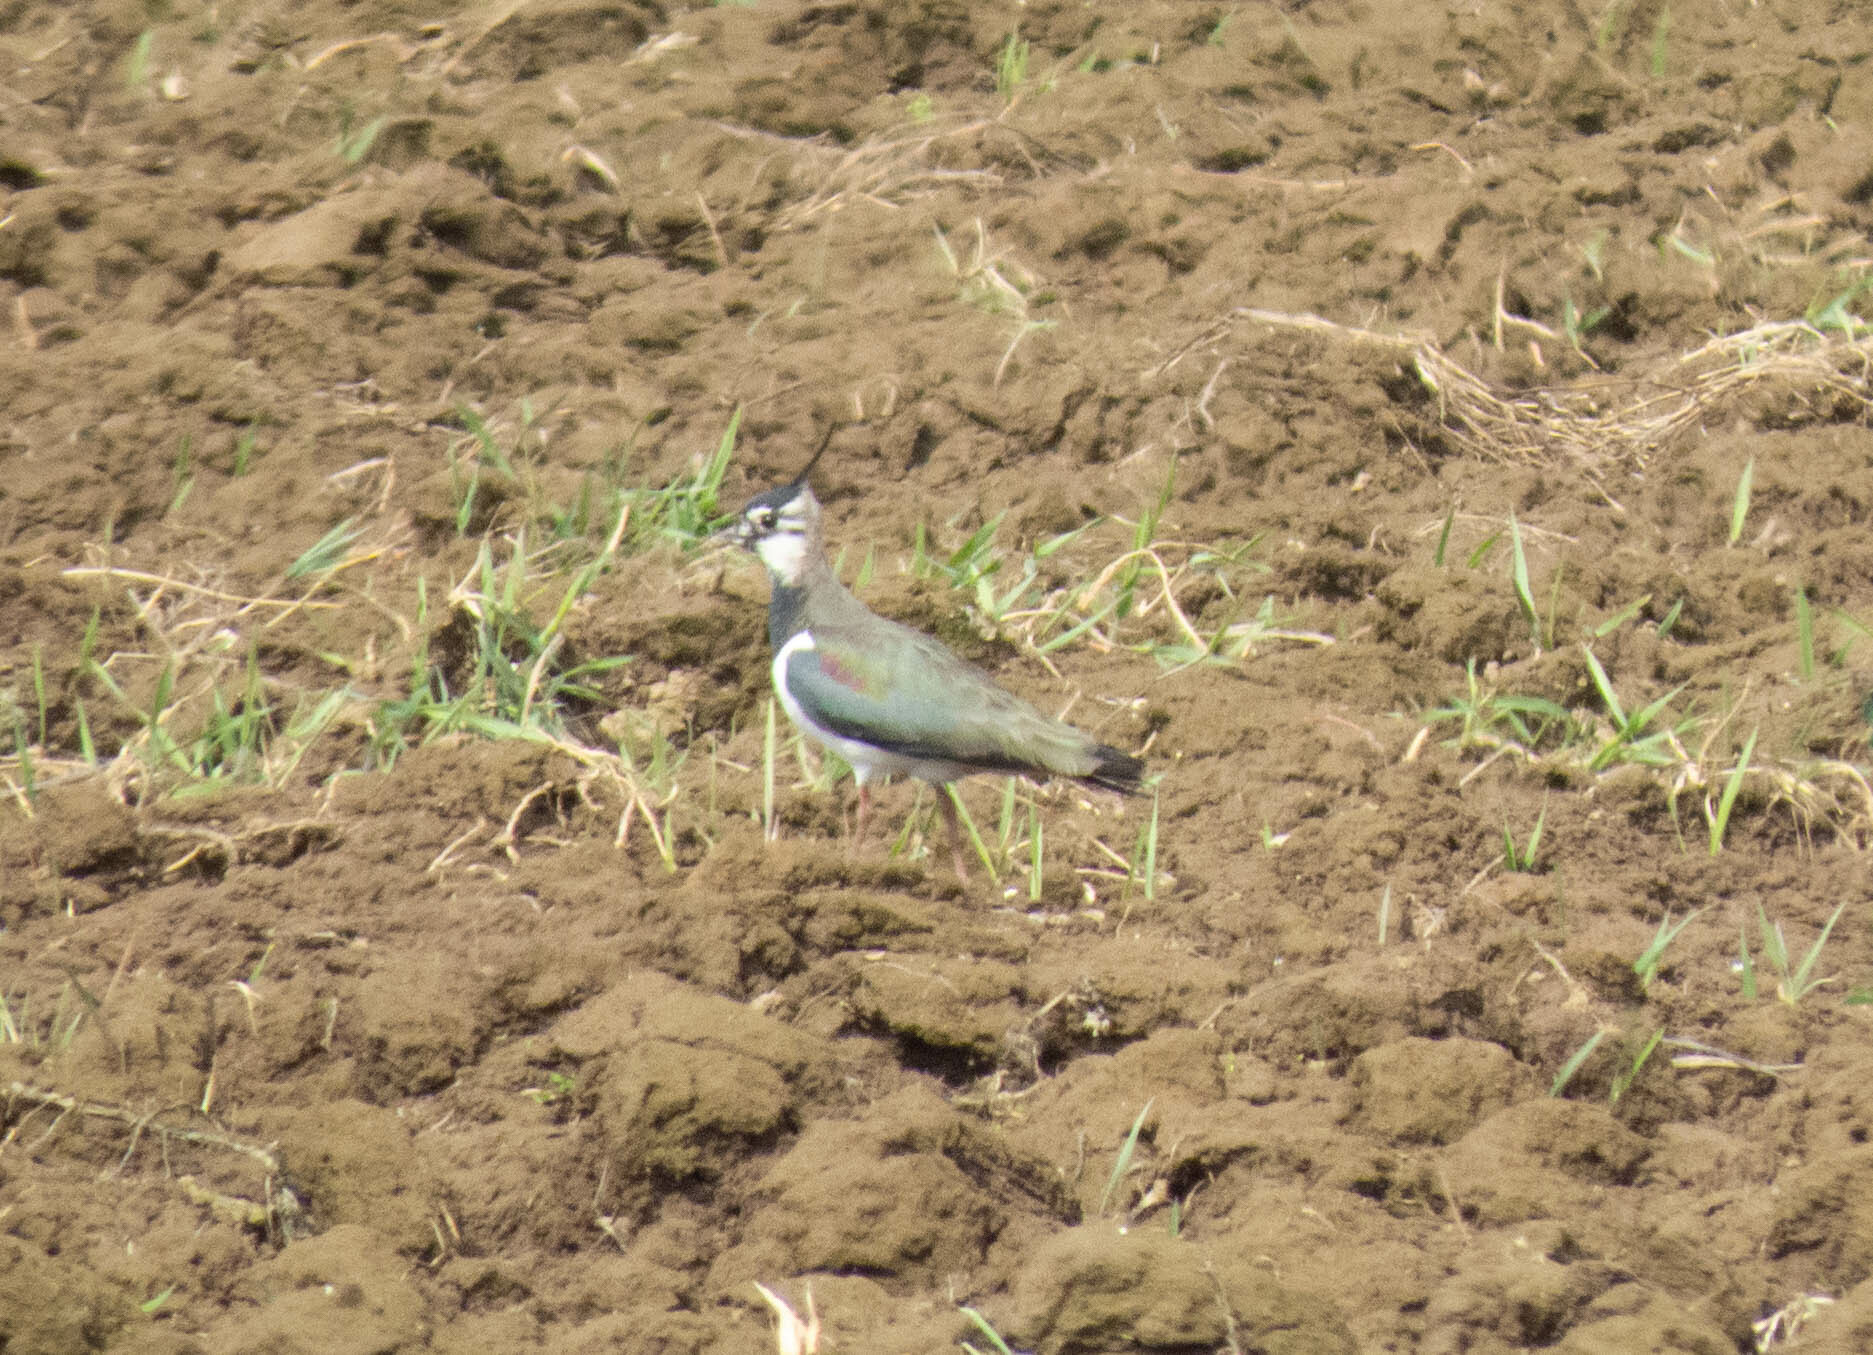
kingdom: Animalia
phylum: Chordata
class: Aves
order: Charadriiformes
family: Charadriidae
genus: Vanellus
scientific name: Vanellus vanellus
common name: Northern lapwing
